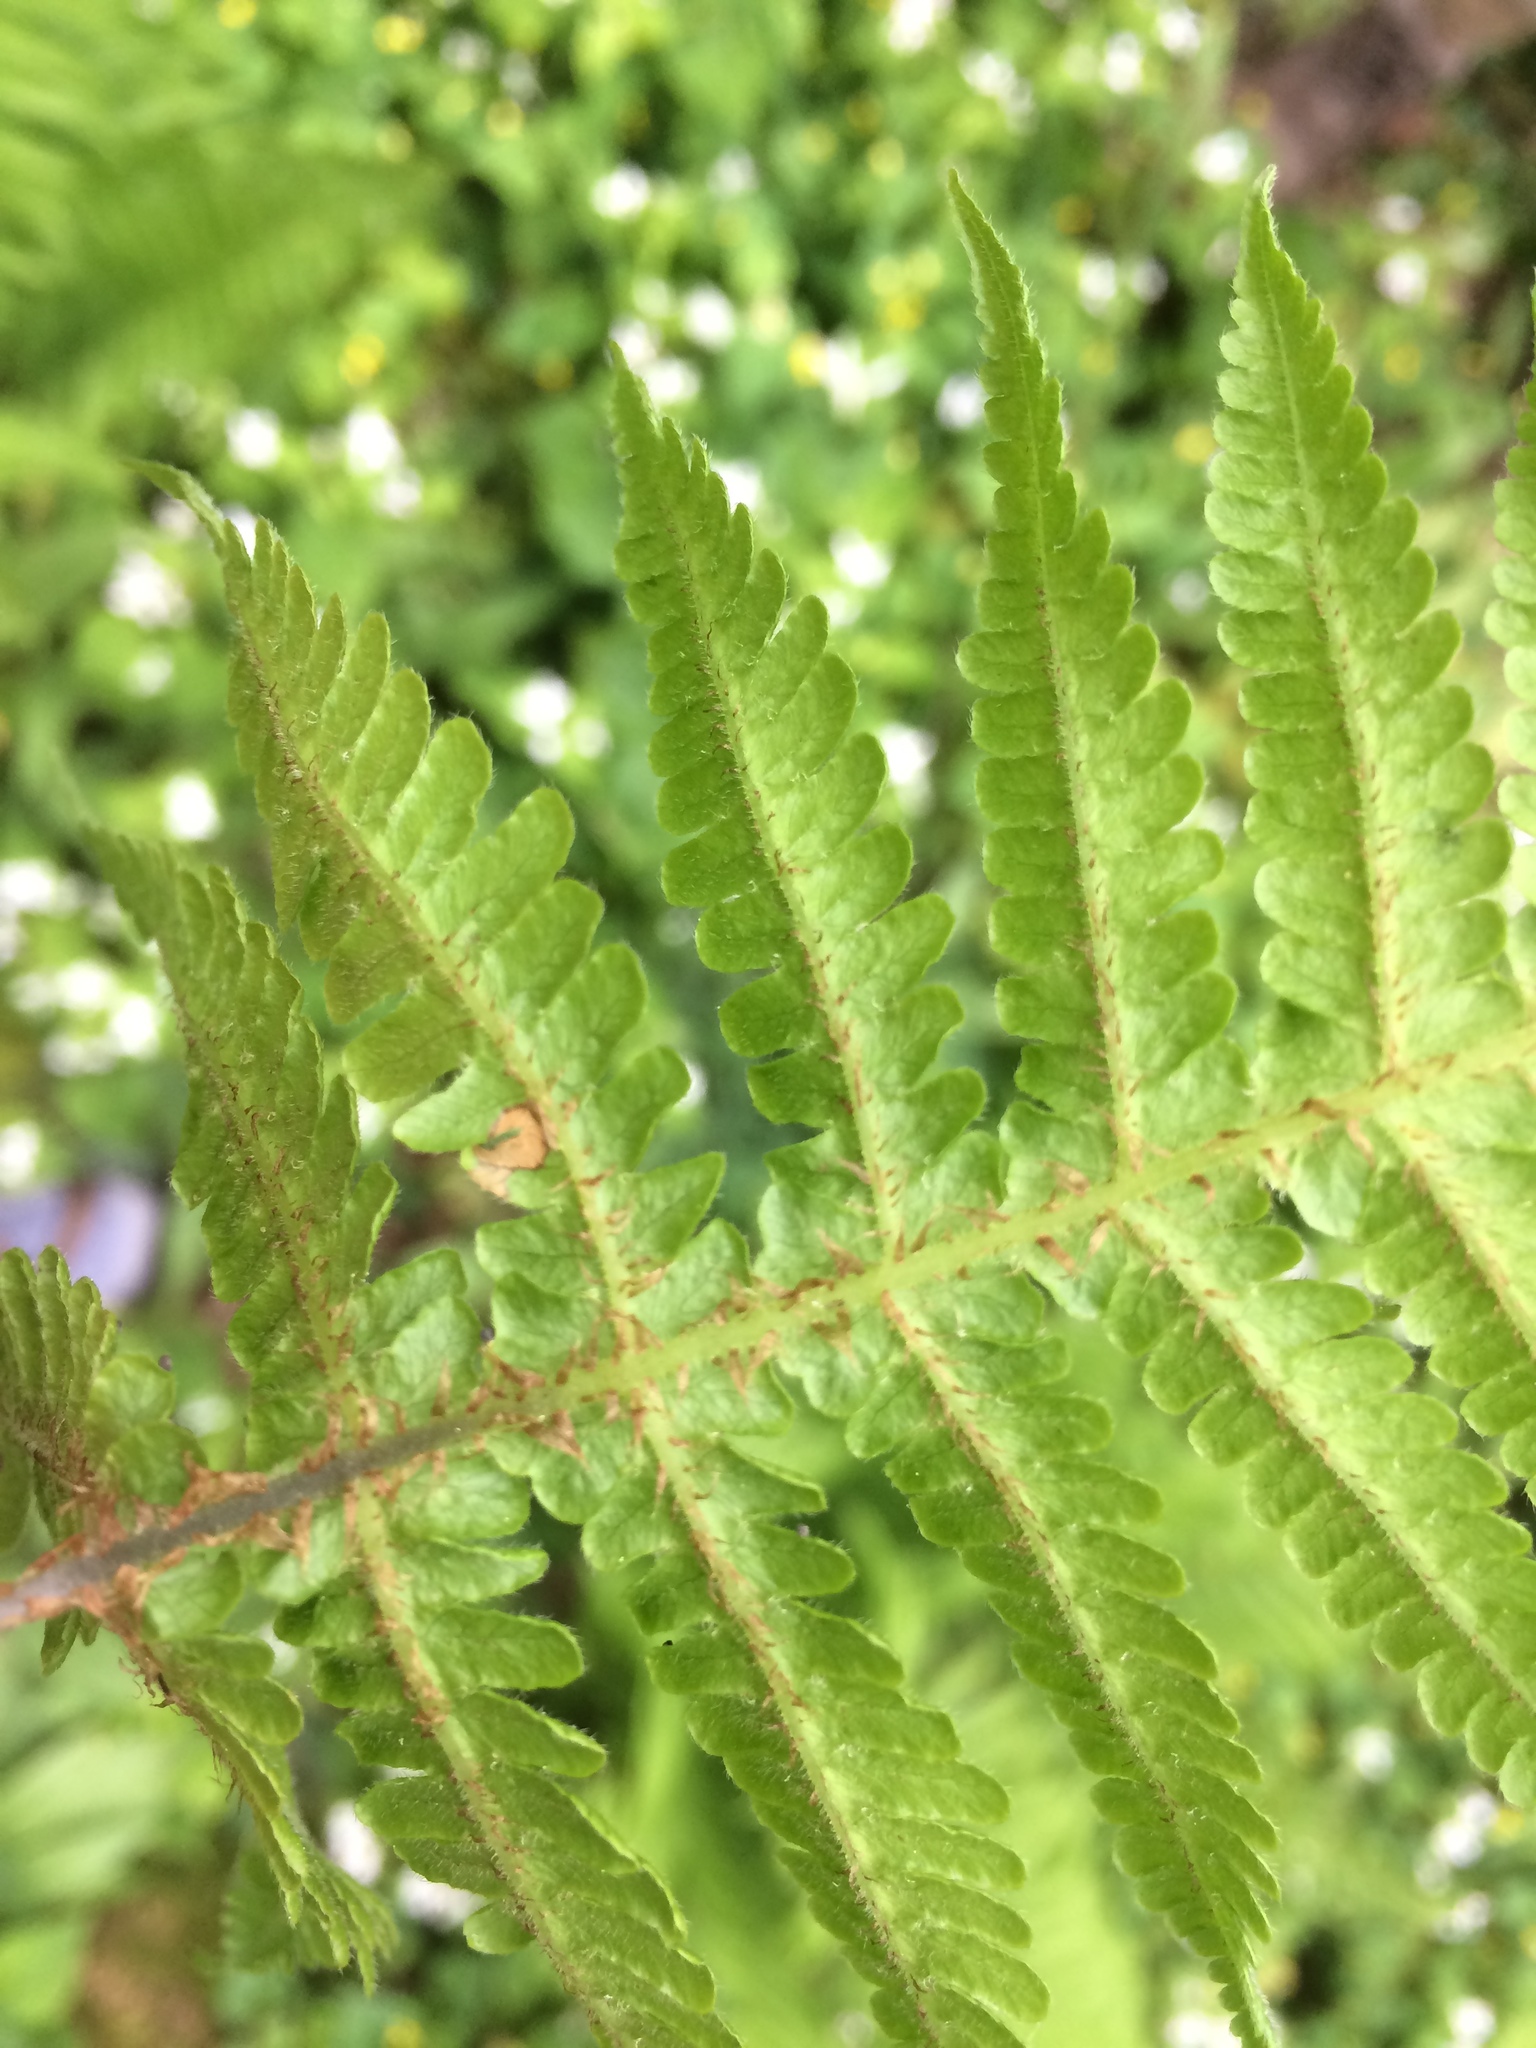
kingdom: Plantae
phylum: Tracheophyta
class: Polypodiopsida
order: Polypodiales
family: Thelypteridaceae
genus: Phegopteris
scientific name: Phegopteris connectilis
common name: Beech fern
